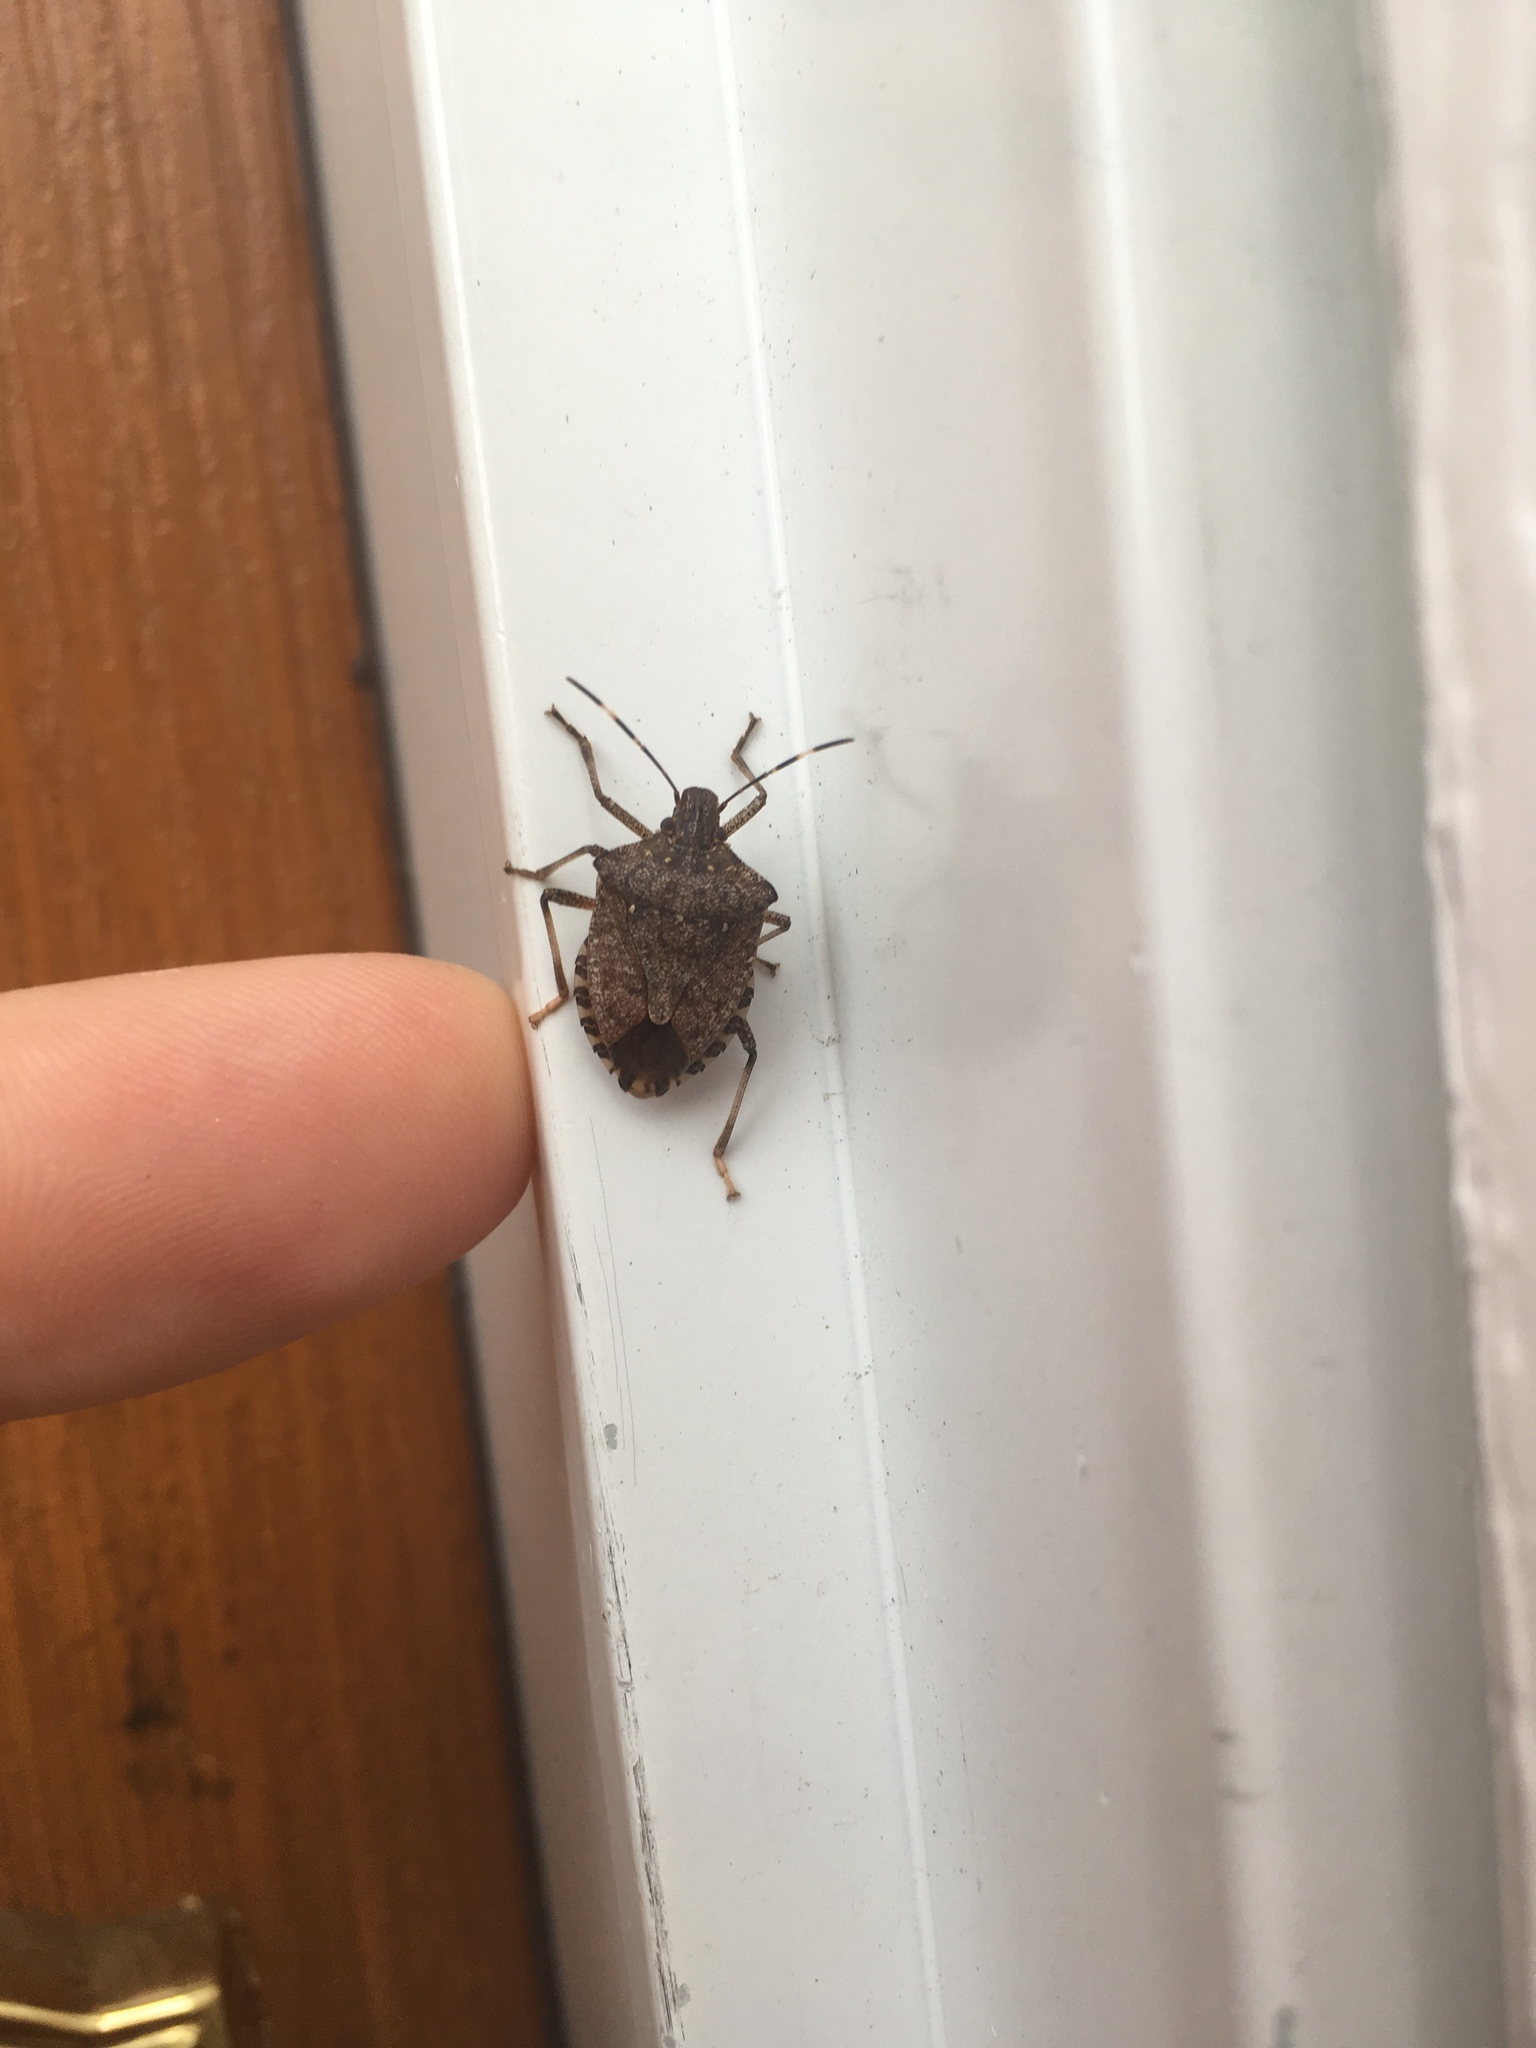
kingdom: Animalia
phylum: Arthropoda
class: Insecta
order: Hemiptera
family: Pentatomidae
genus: Halyomorpha
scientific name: Halyomorpha halys
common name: Brown marmorated stink bug
